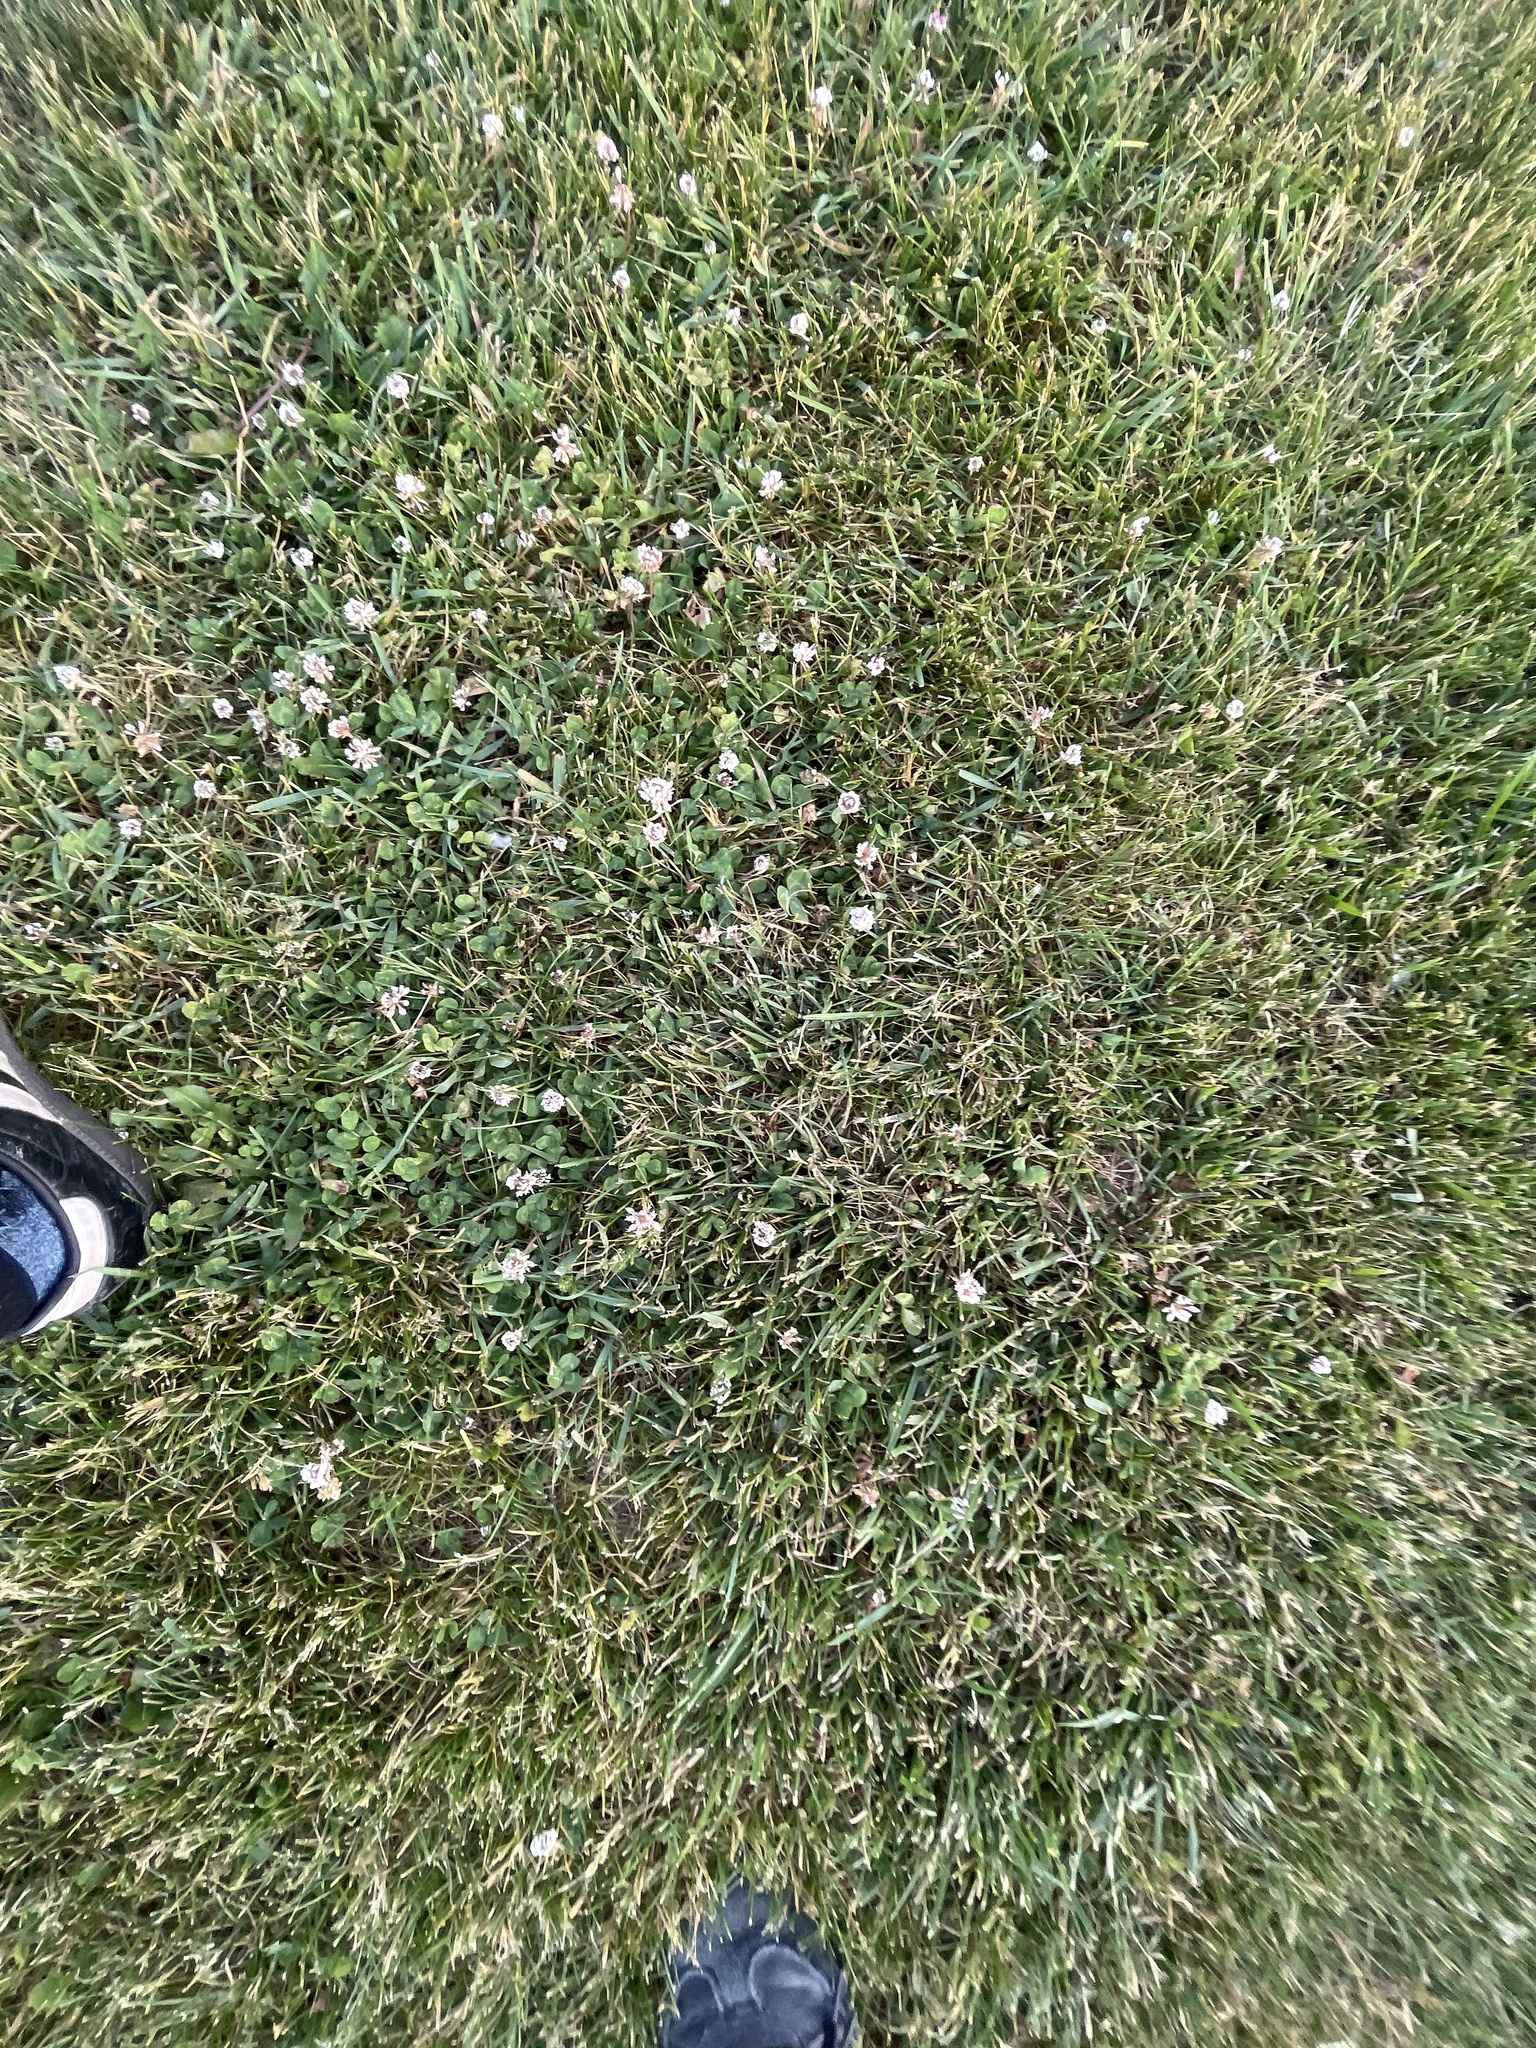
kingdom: Plantae
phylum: Tracheophyta
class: Magnoliopsida
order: Fabales
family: Fabaceae
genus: Trifolium
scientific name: Trifolium repens
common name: White clover
